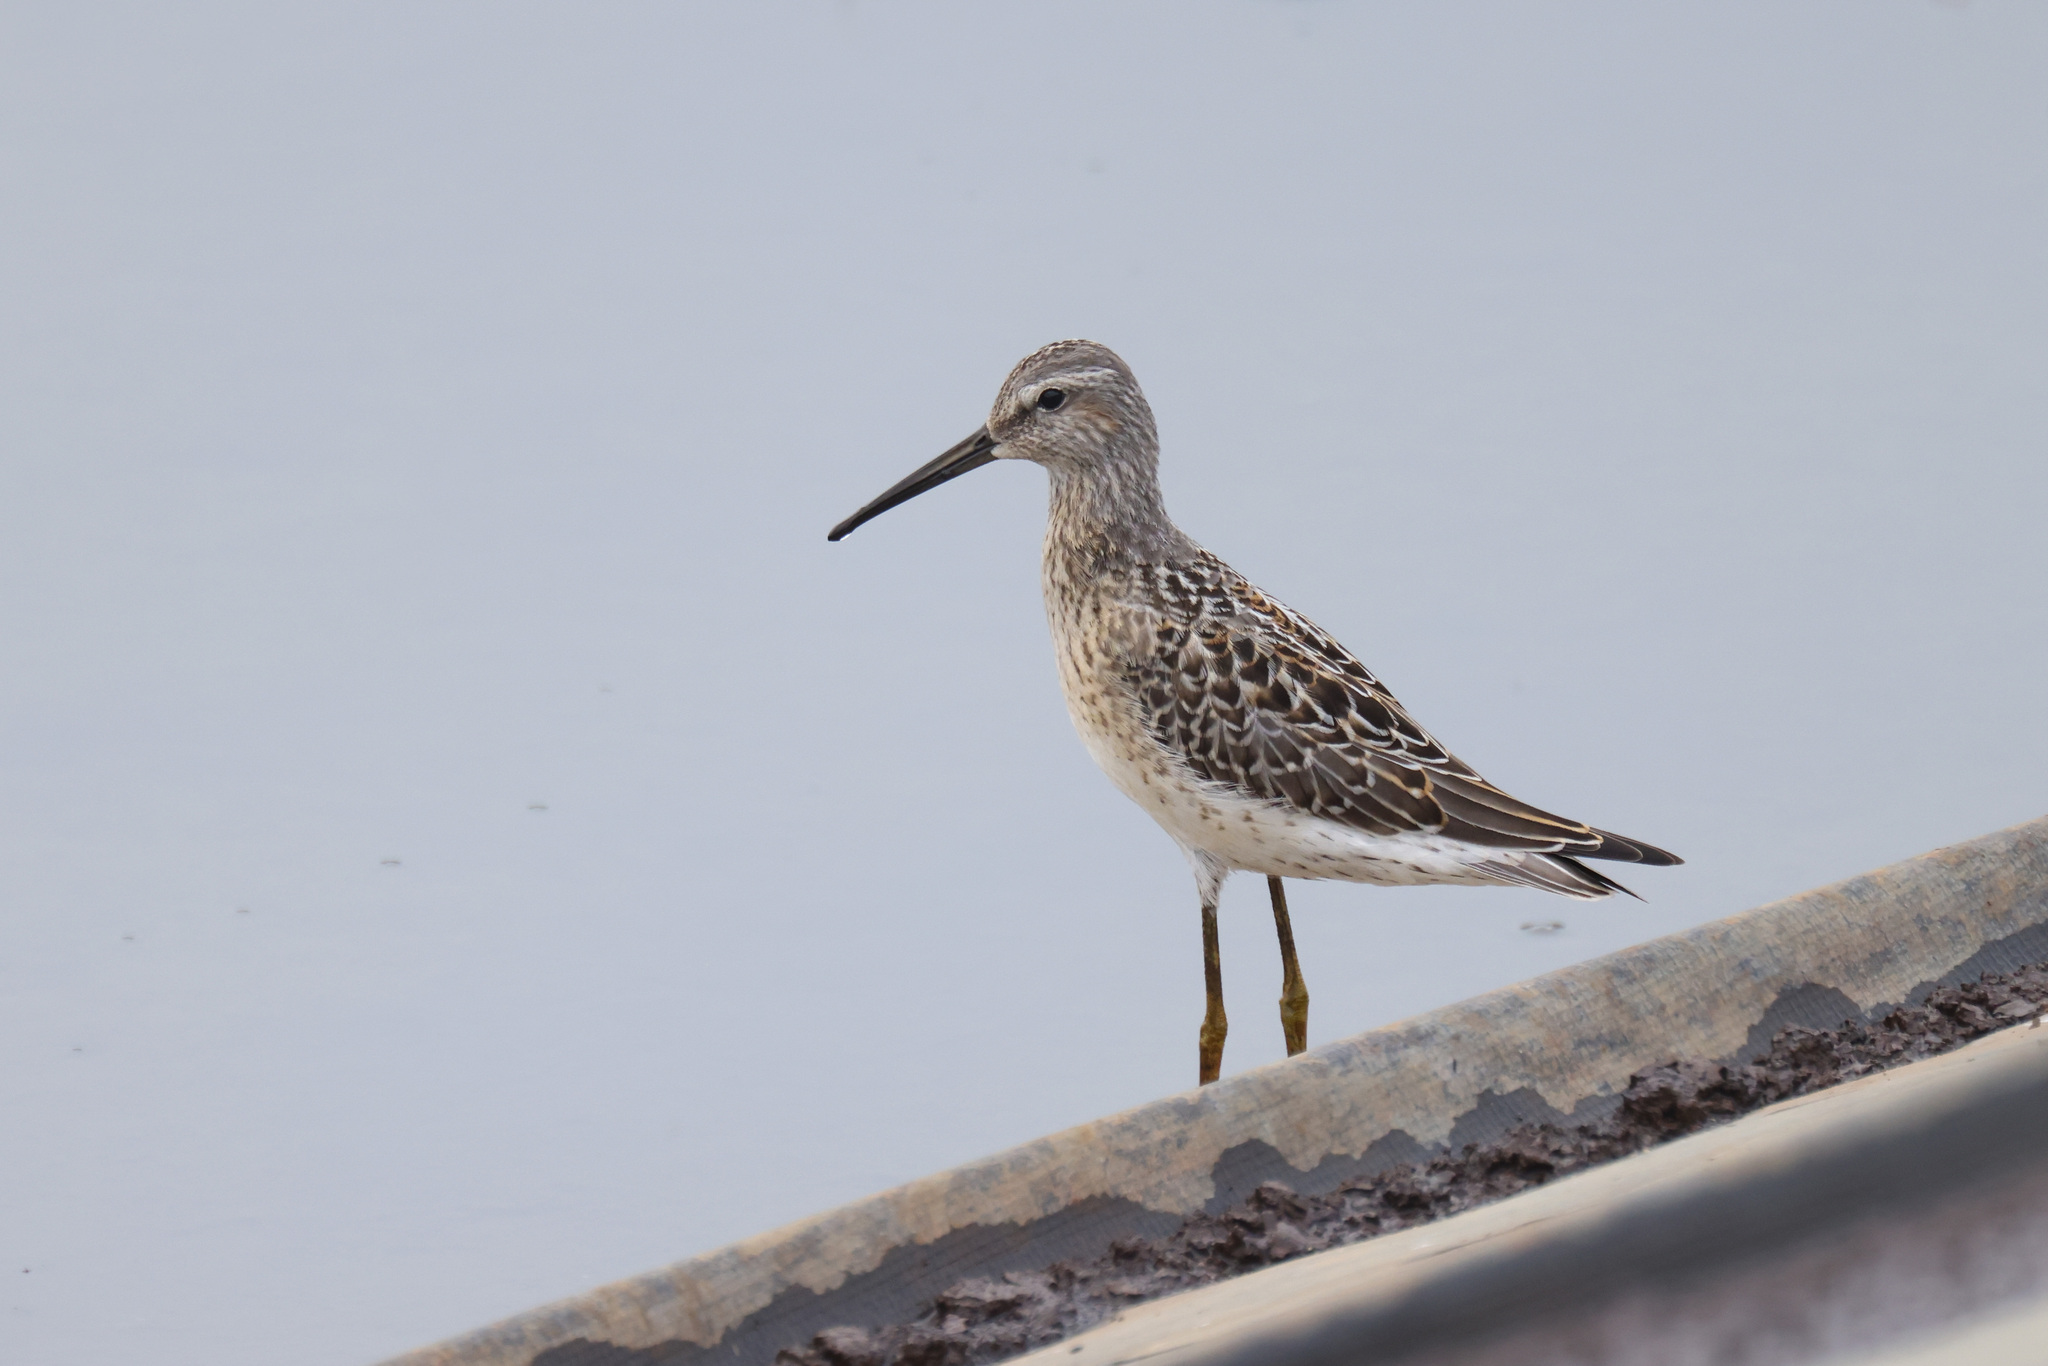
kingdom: Animalia
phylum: Chordata
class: Aves
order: Charadriiformes
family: Scolopacidae
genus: Calidris
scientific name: Calidris himantopus
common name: Stilt sandpiper
